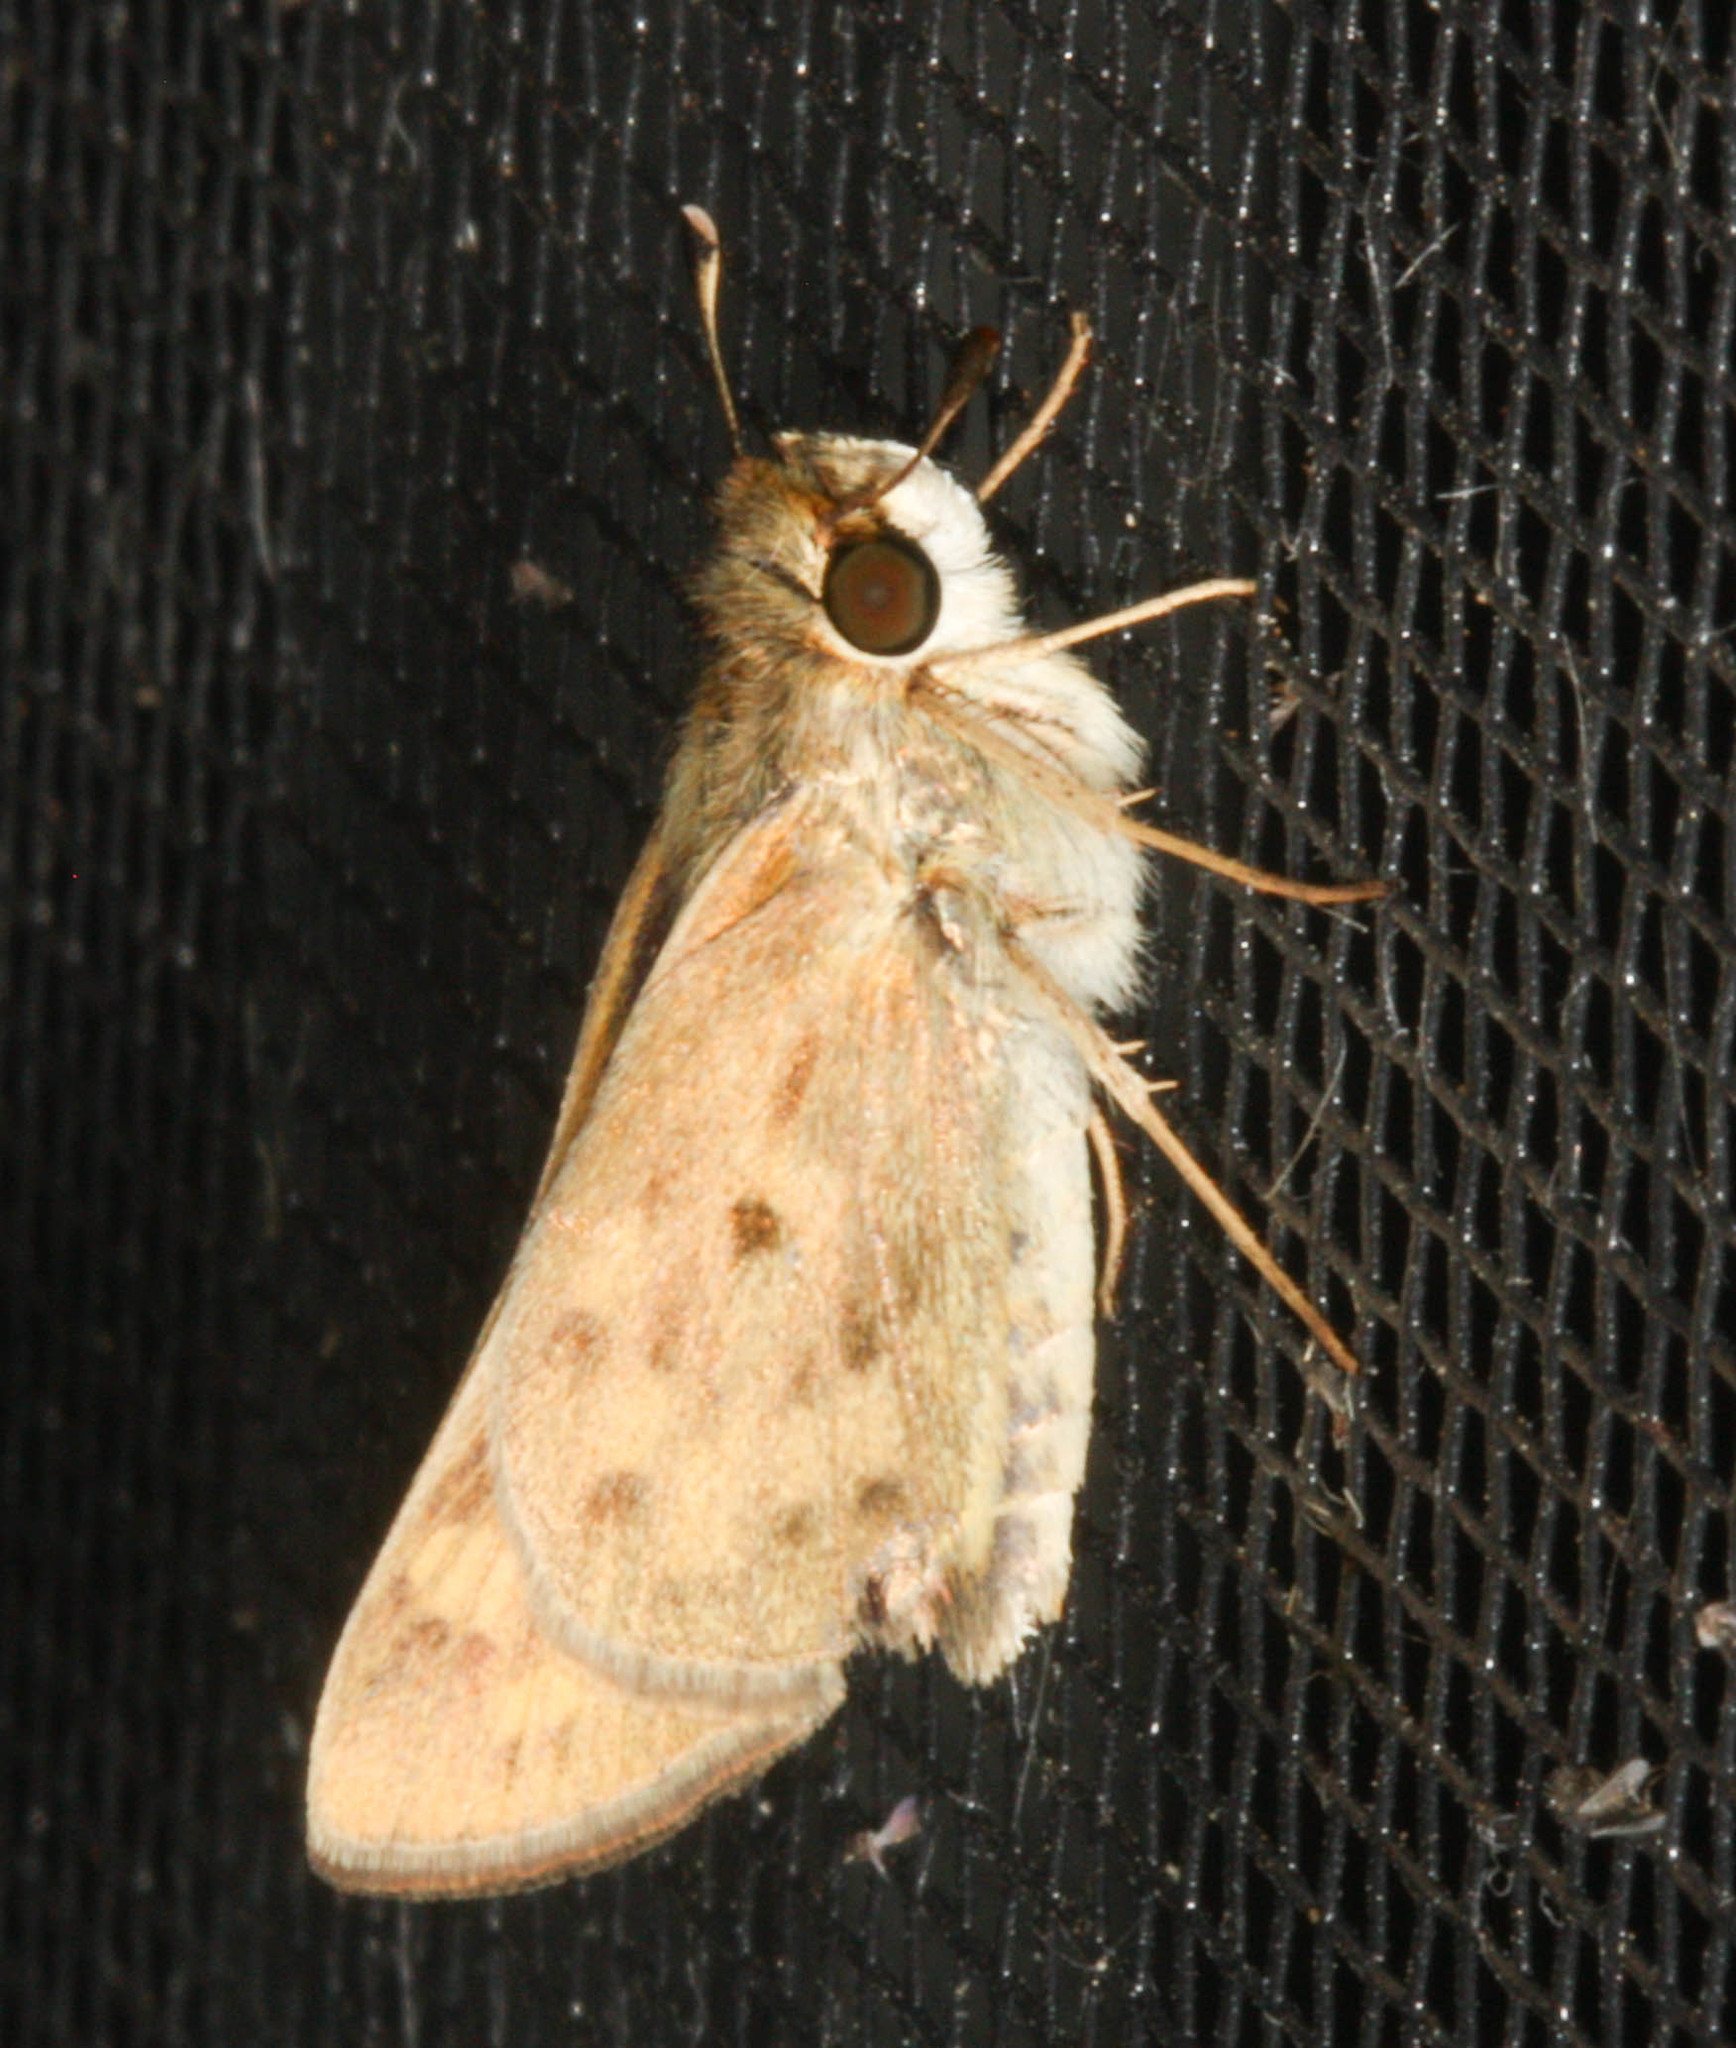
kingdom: Animalia
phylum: Arthropoda
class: Insecta
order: Lepidoptera
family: Hesperiidae
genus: Hylephila
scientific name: Hylephila phyleus
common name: Fiery skipper
